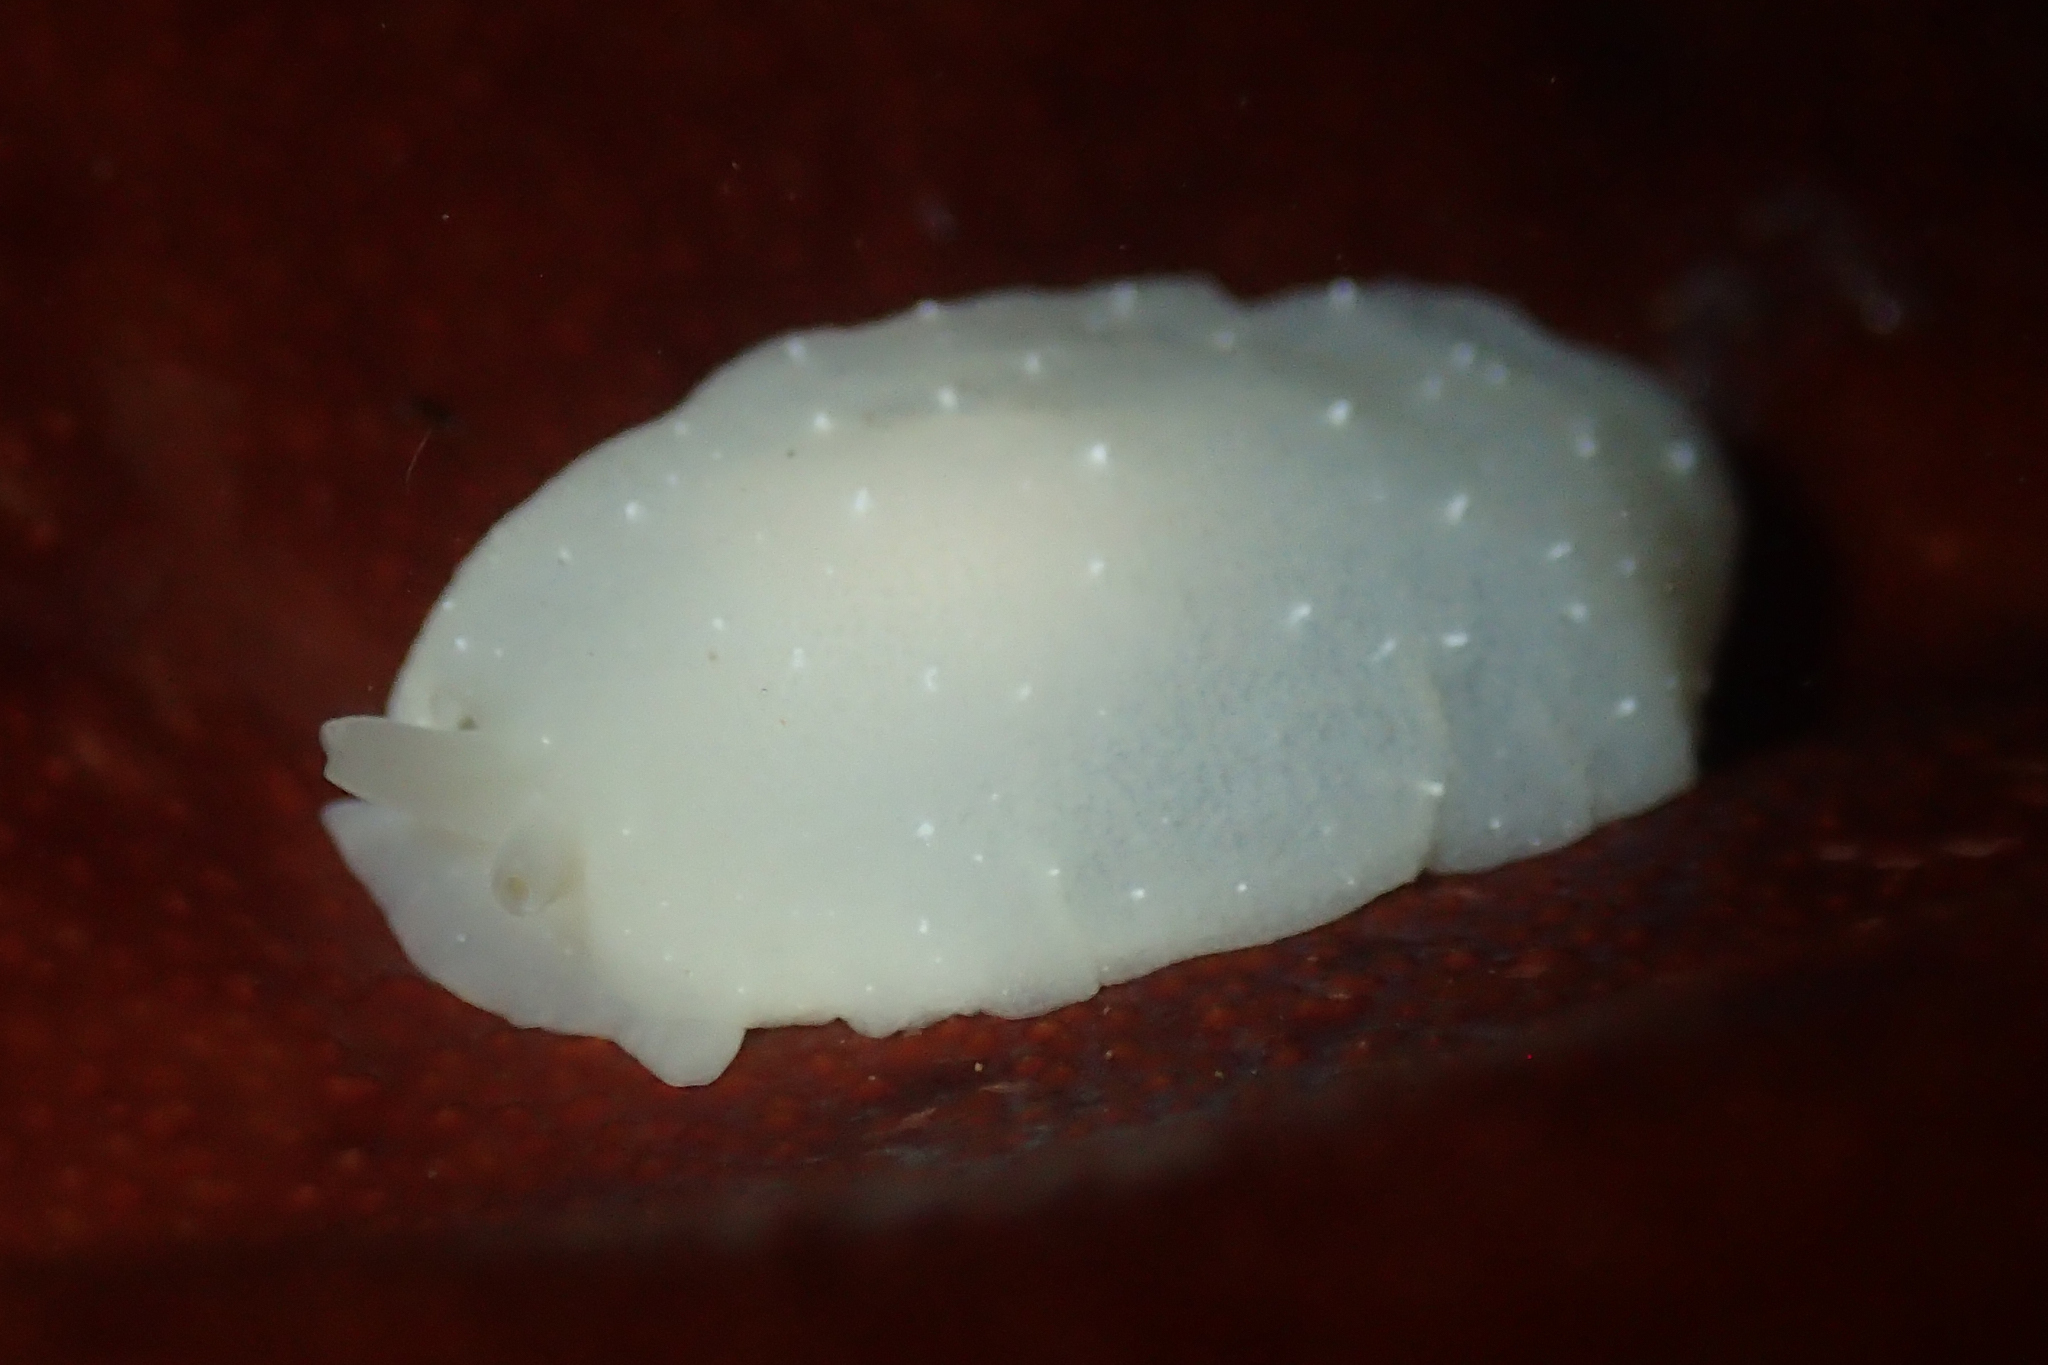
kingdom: Animalia
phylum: Mollusca
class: Gastropoda
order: Pleurobranchida
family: Pleurobranchidae
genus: Pleurehdera
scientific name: Pleurehdera
